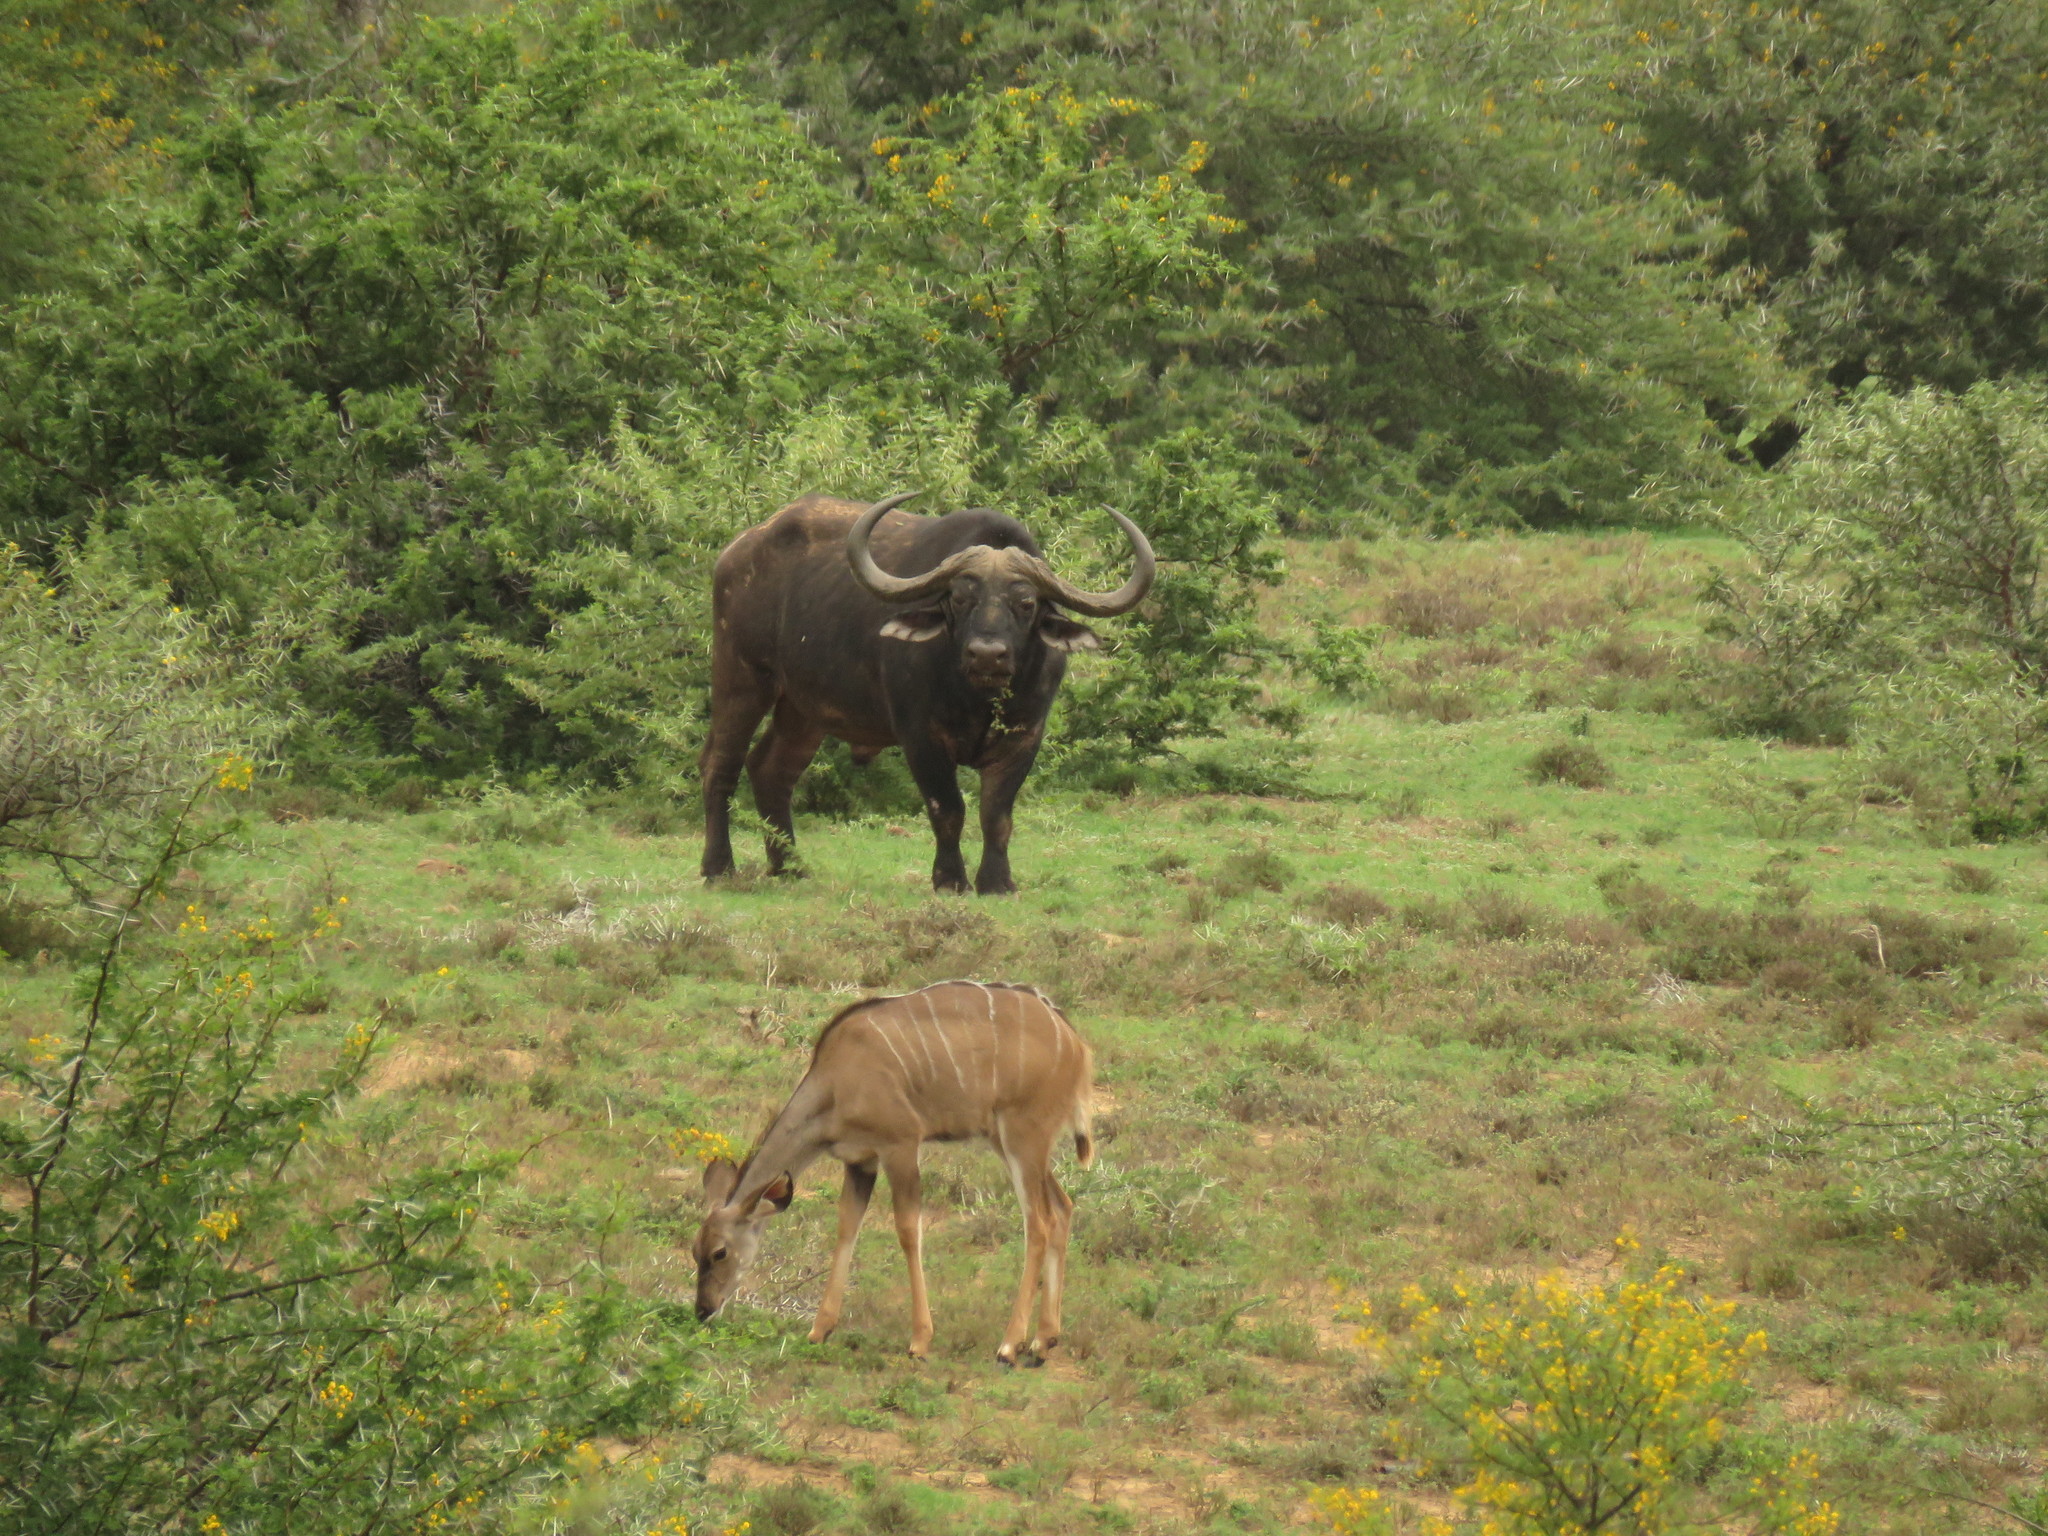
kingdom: Animalia
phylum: Chordata
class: Mammalia
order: Artiodactyla
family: Bovidae
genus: Syncerus
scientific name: Syncerus caffer
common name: African buffalo
